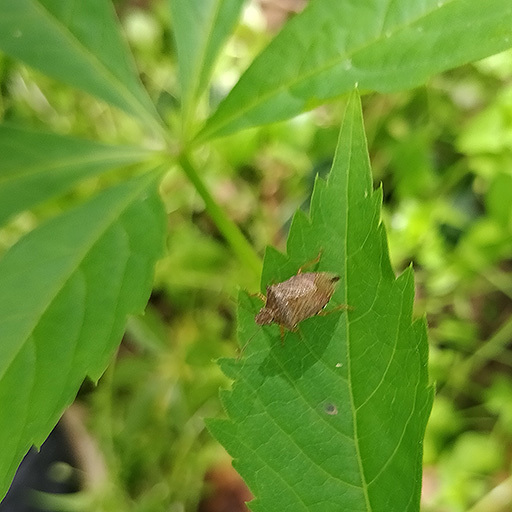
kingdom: Animalia
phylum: Arthropoda
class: Insecta
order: Hemiptera
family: Pentatomidae
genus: Podisus
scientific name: Podisus maculiventris
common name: Spined soldier bug
